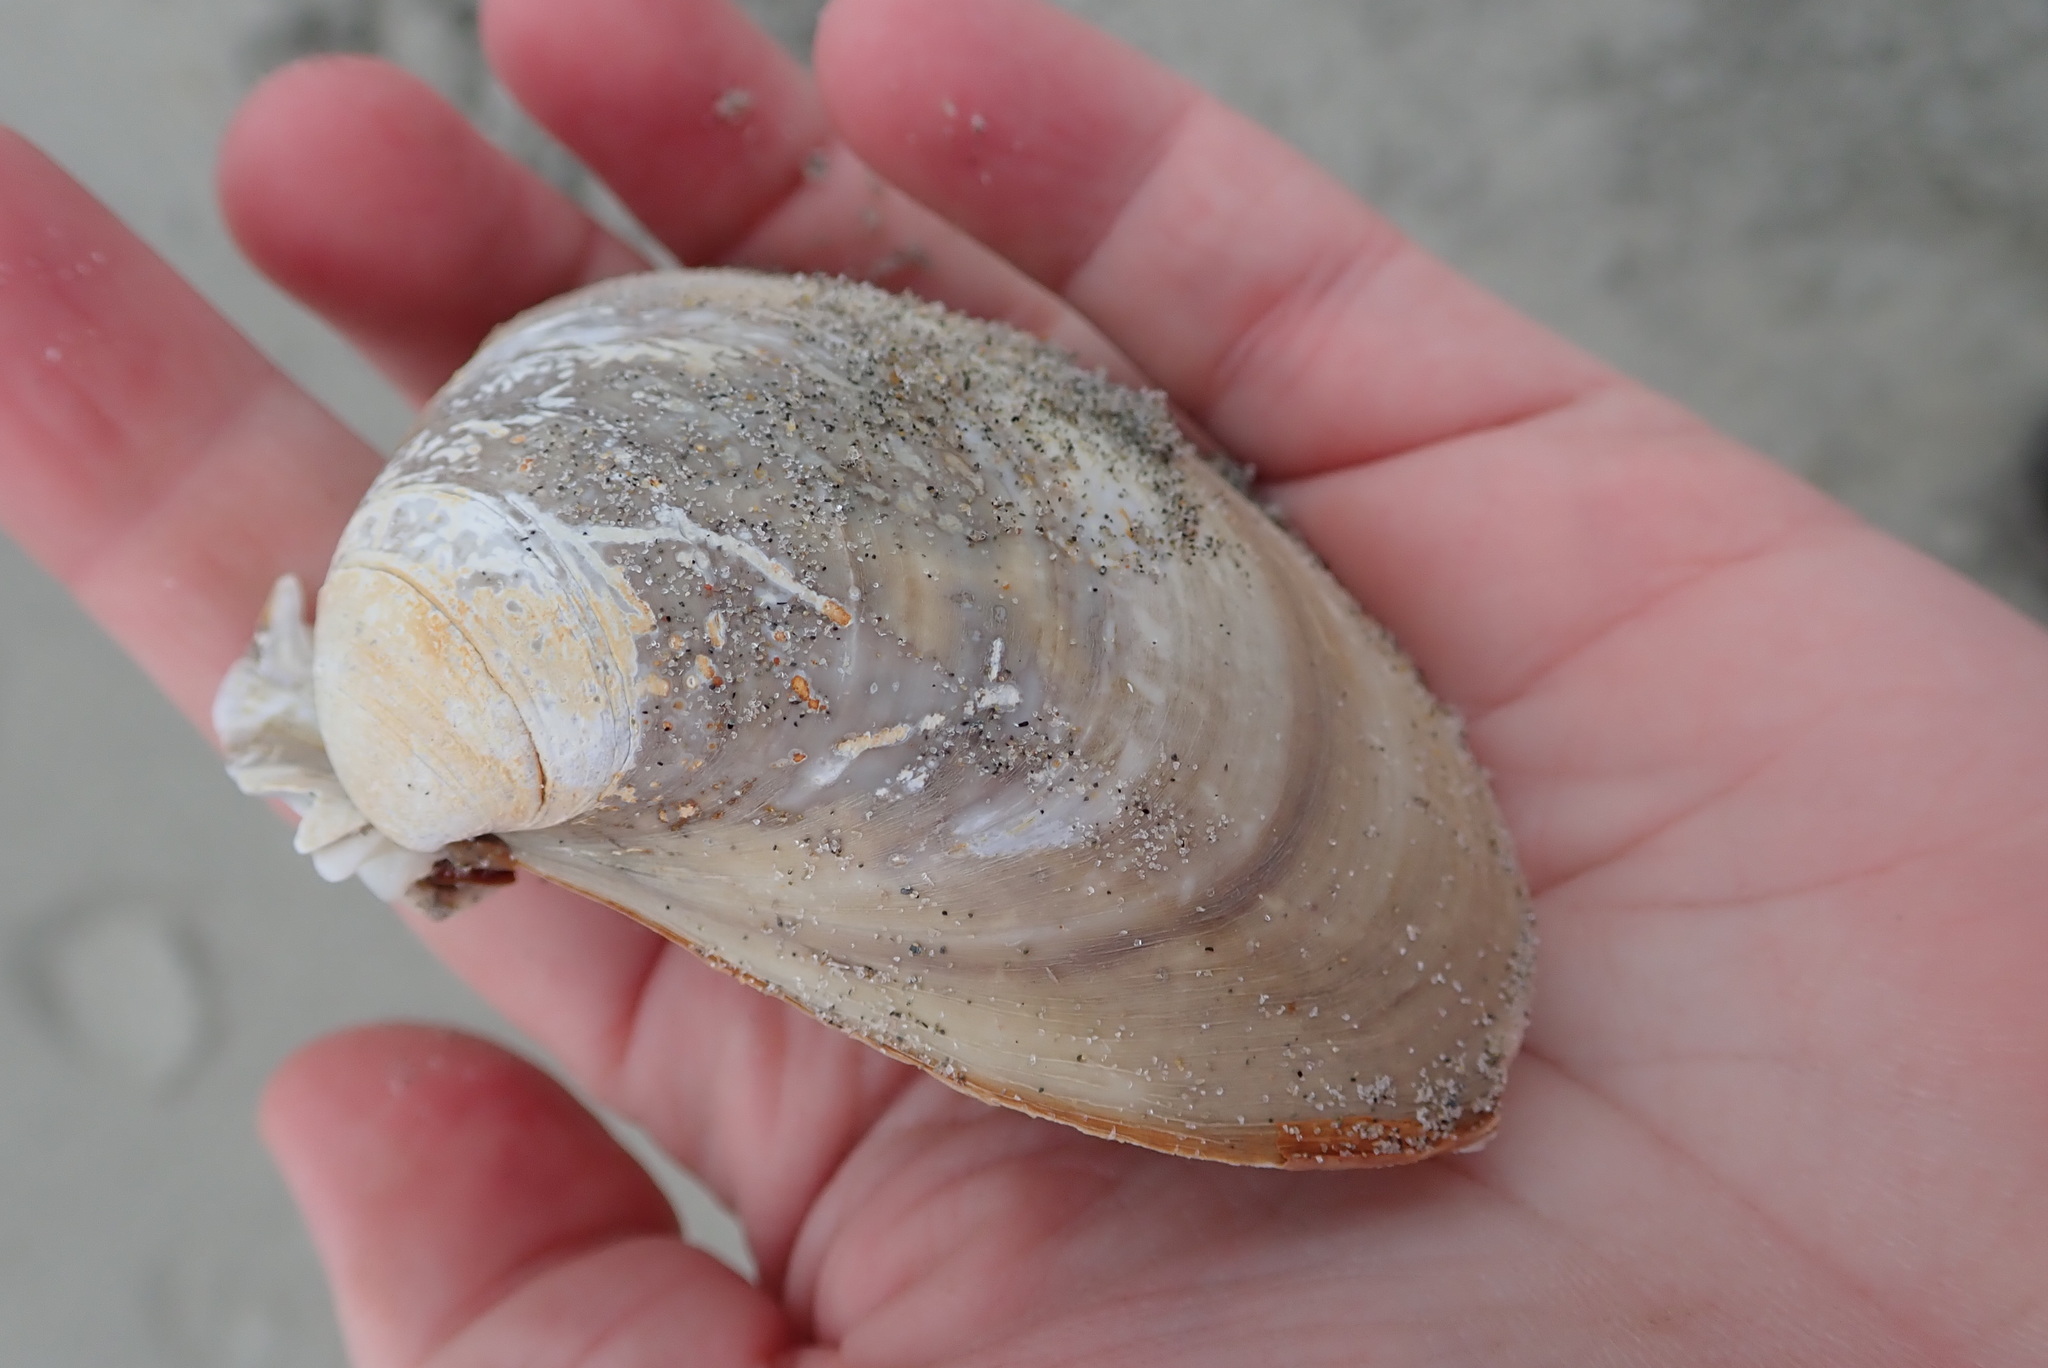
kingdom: Animalia
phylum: Mollusca
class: Bivalvia
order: Venerida
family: Mactridae
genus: Spisula
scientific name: Spisula solidissima
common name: Atlantic surf clam
